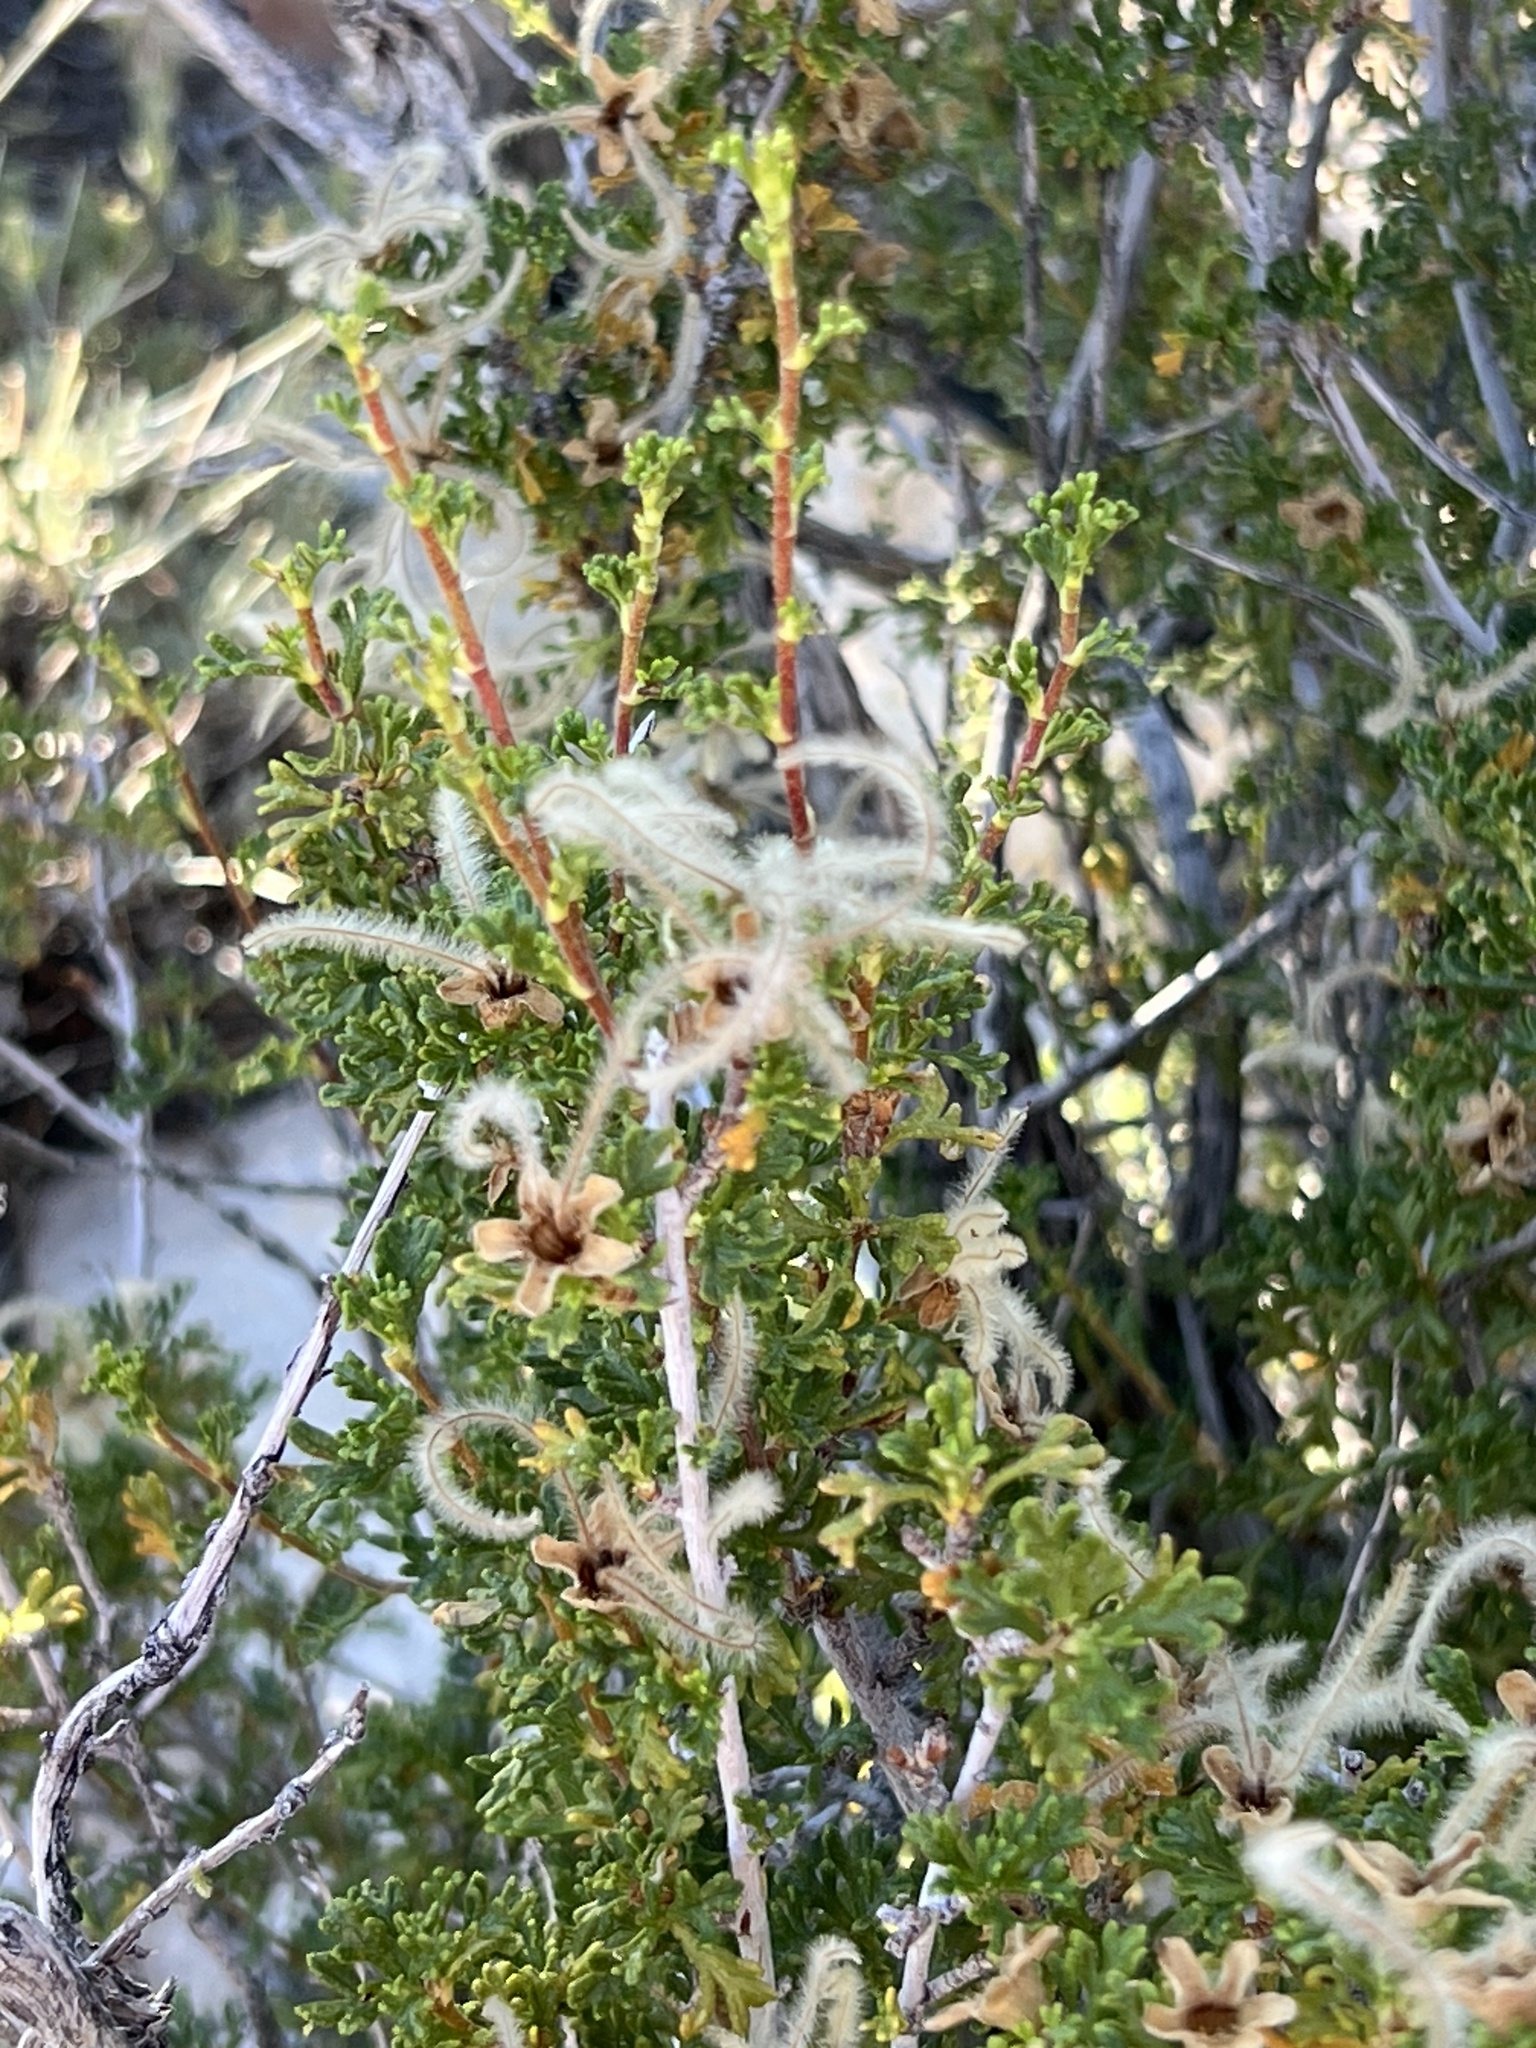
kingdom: Plantae
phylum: Tracheophyta
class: Magnoliopsida
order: Rosales
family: Rosaceae
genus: Purshia
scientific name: Purshia stansburiana
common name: Stansbury's cliffrose
